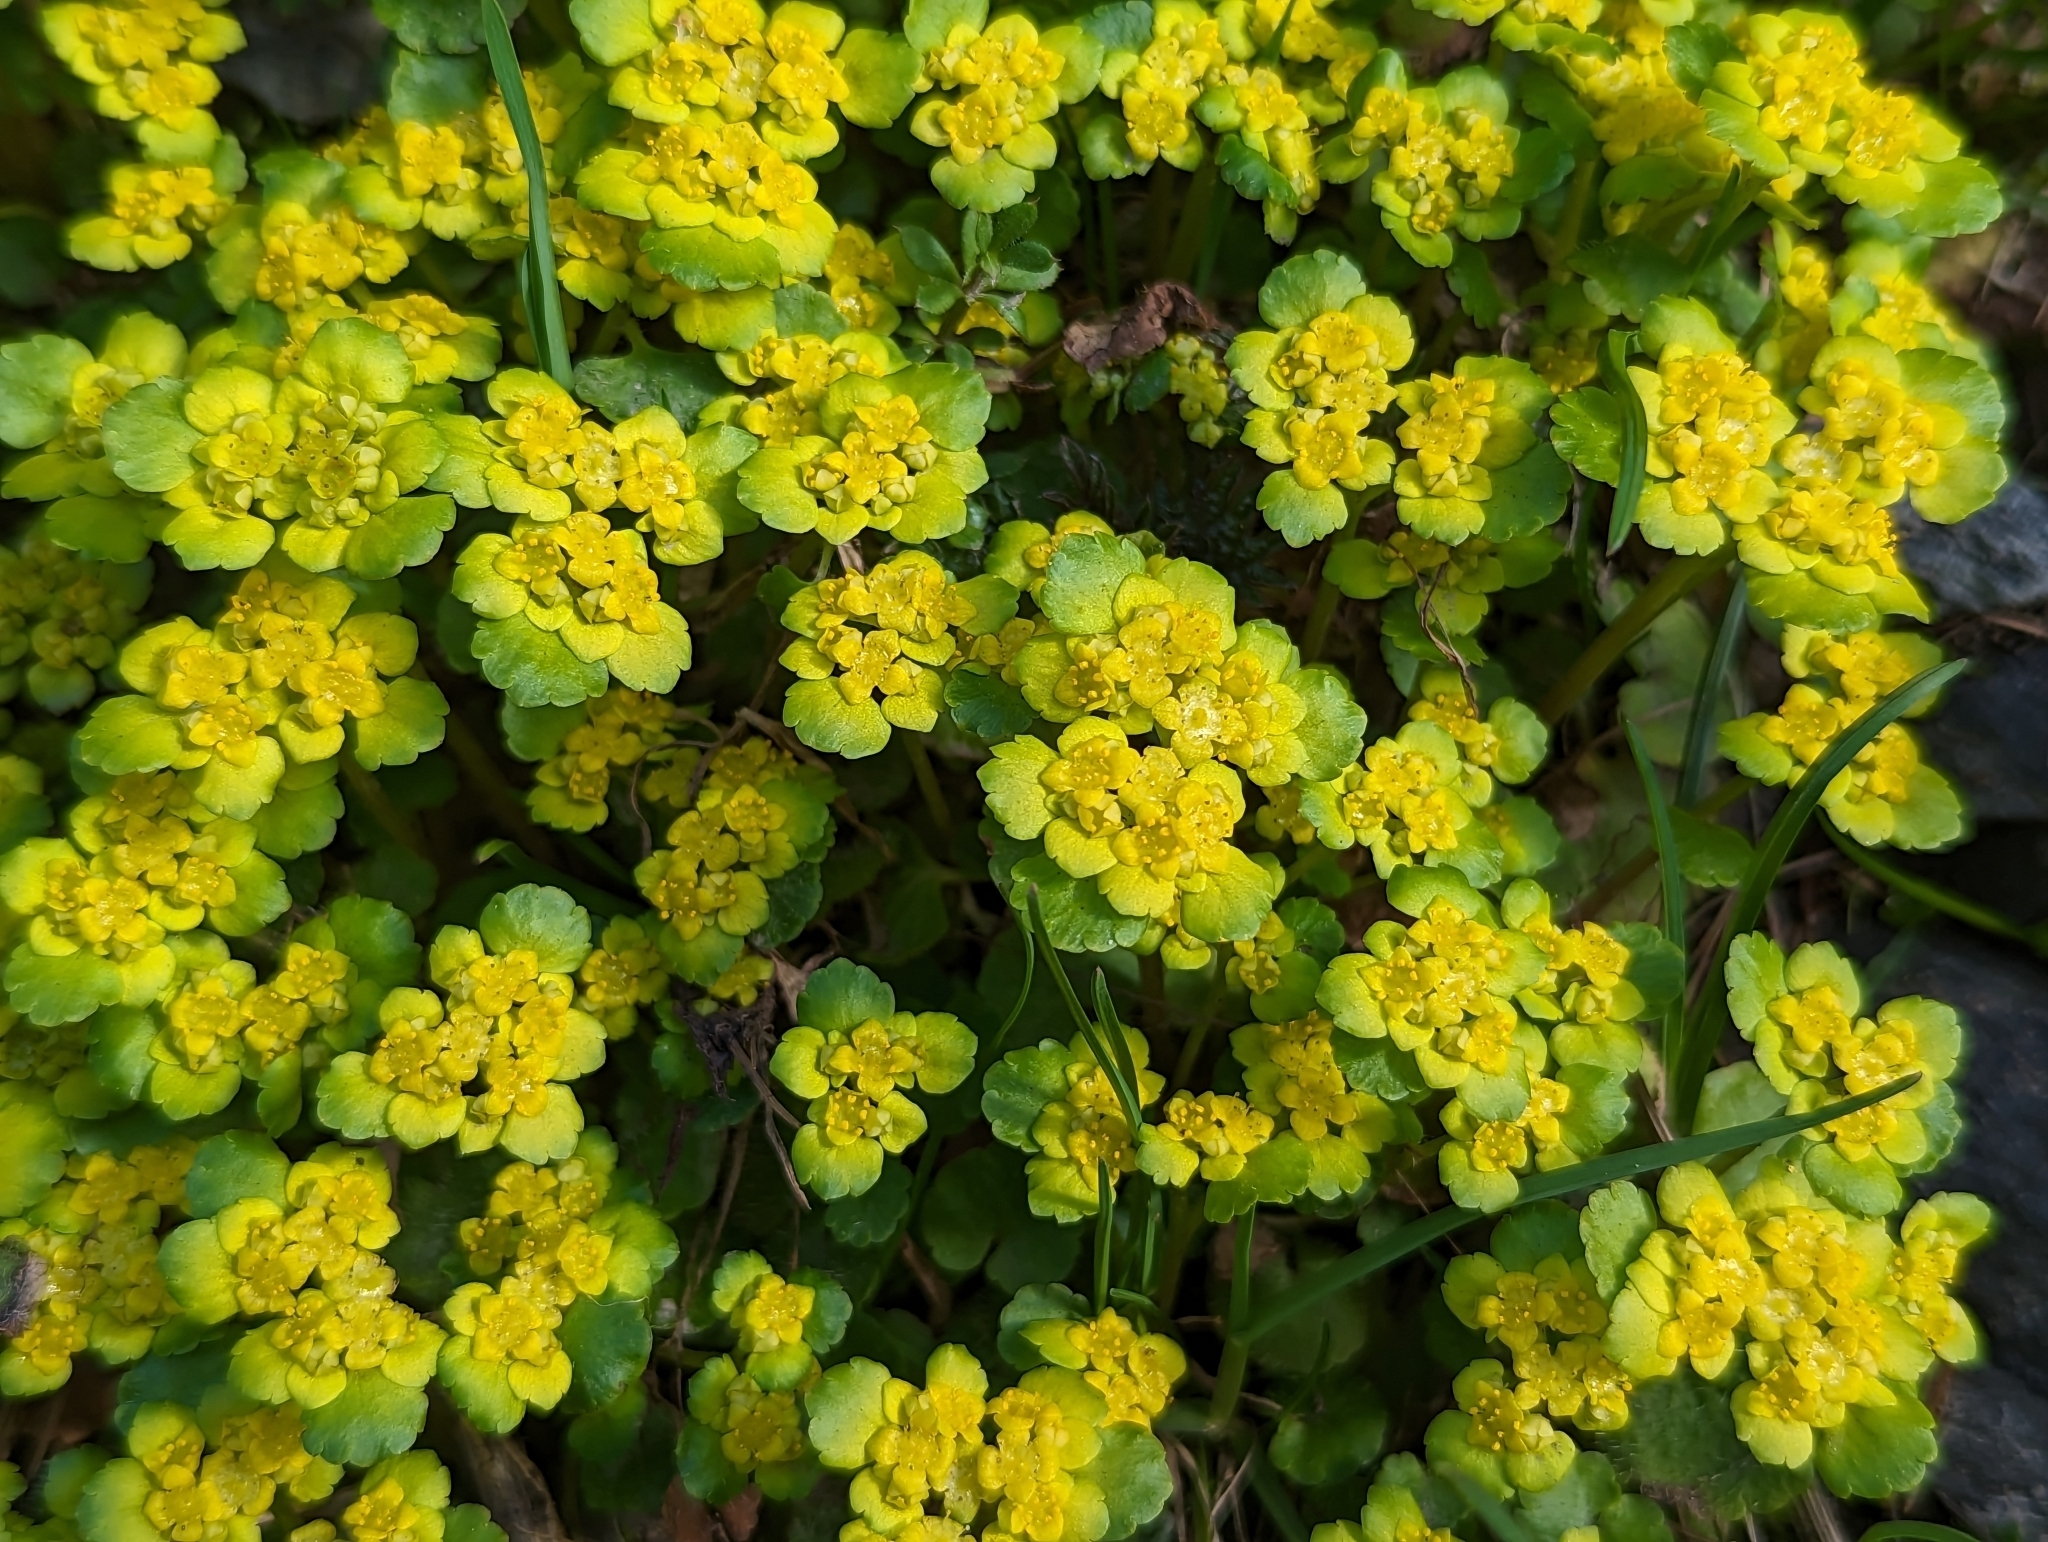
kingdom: Plantae
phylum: Tracheophyta
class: Magnoliopsida
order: Saxifragales
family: Saxifragaceae
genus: Chrysosplenium
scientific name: Chrysosplenium alternifolium
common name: Alternate-leaved golden-saxifrage
